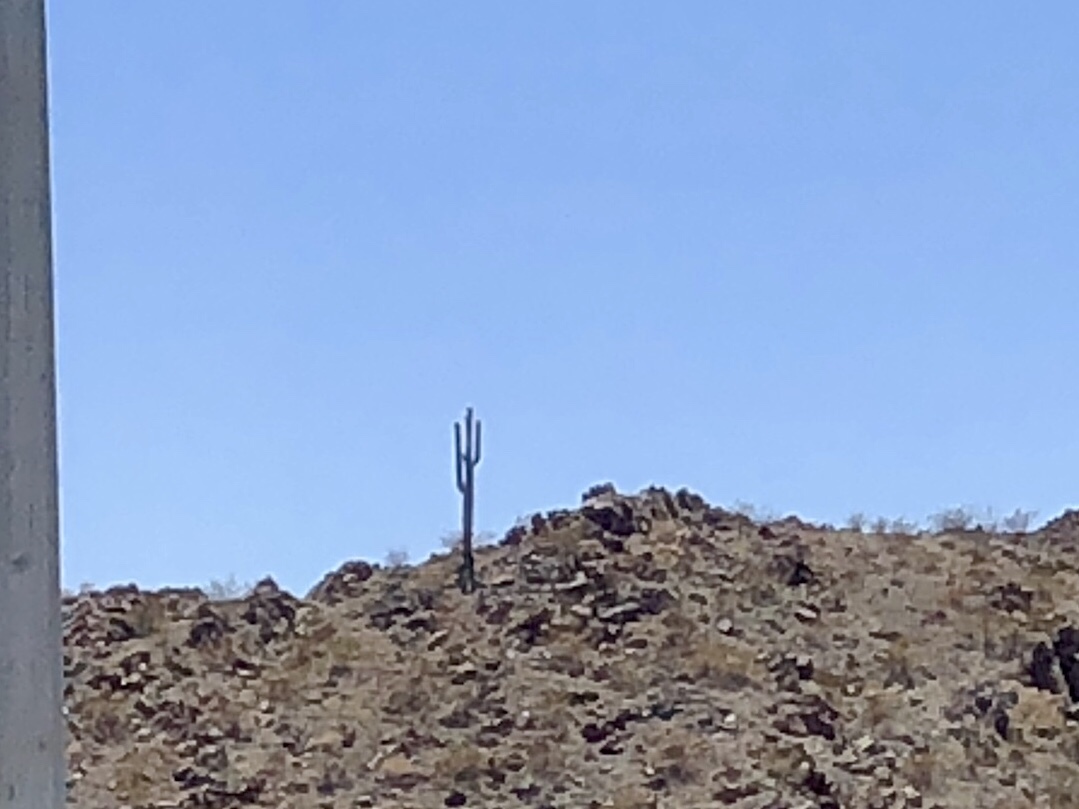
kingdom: Plantae
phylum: Tracheophyta
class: Magnoliopsida
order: Caryophyllales
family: Cactaceae
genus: Carnegiea
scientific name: Carnegiea gigantea
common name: Saguaro
